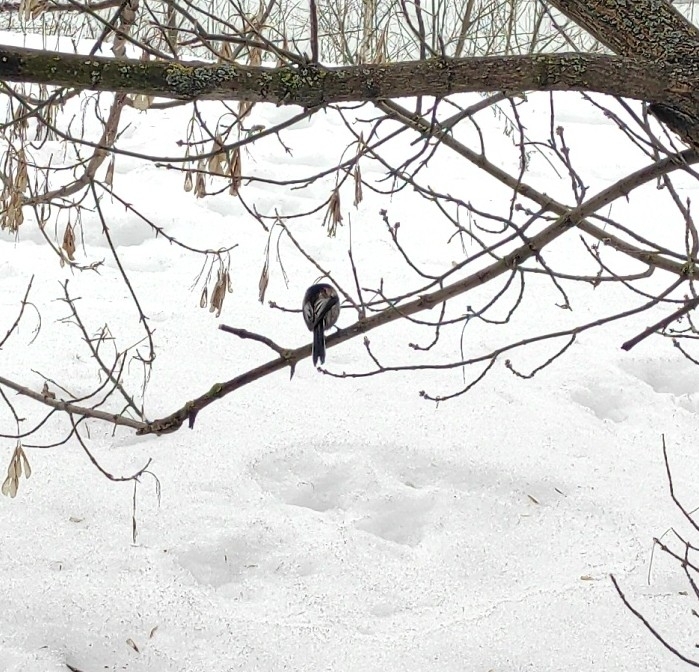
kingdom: Animalia
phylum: Chordata
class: Aves
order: Passeriformes
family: Aegithalidae
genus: Aegithalos
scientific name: Aegithalos caudatus
